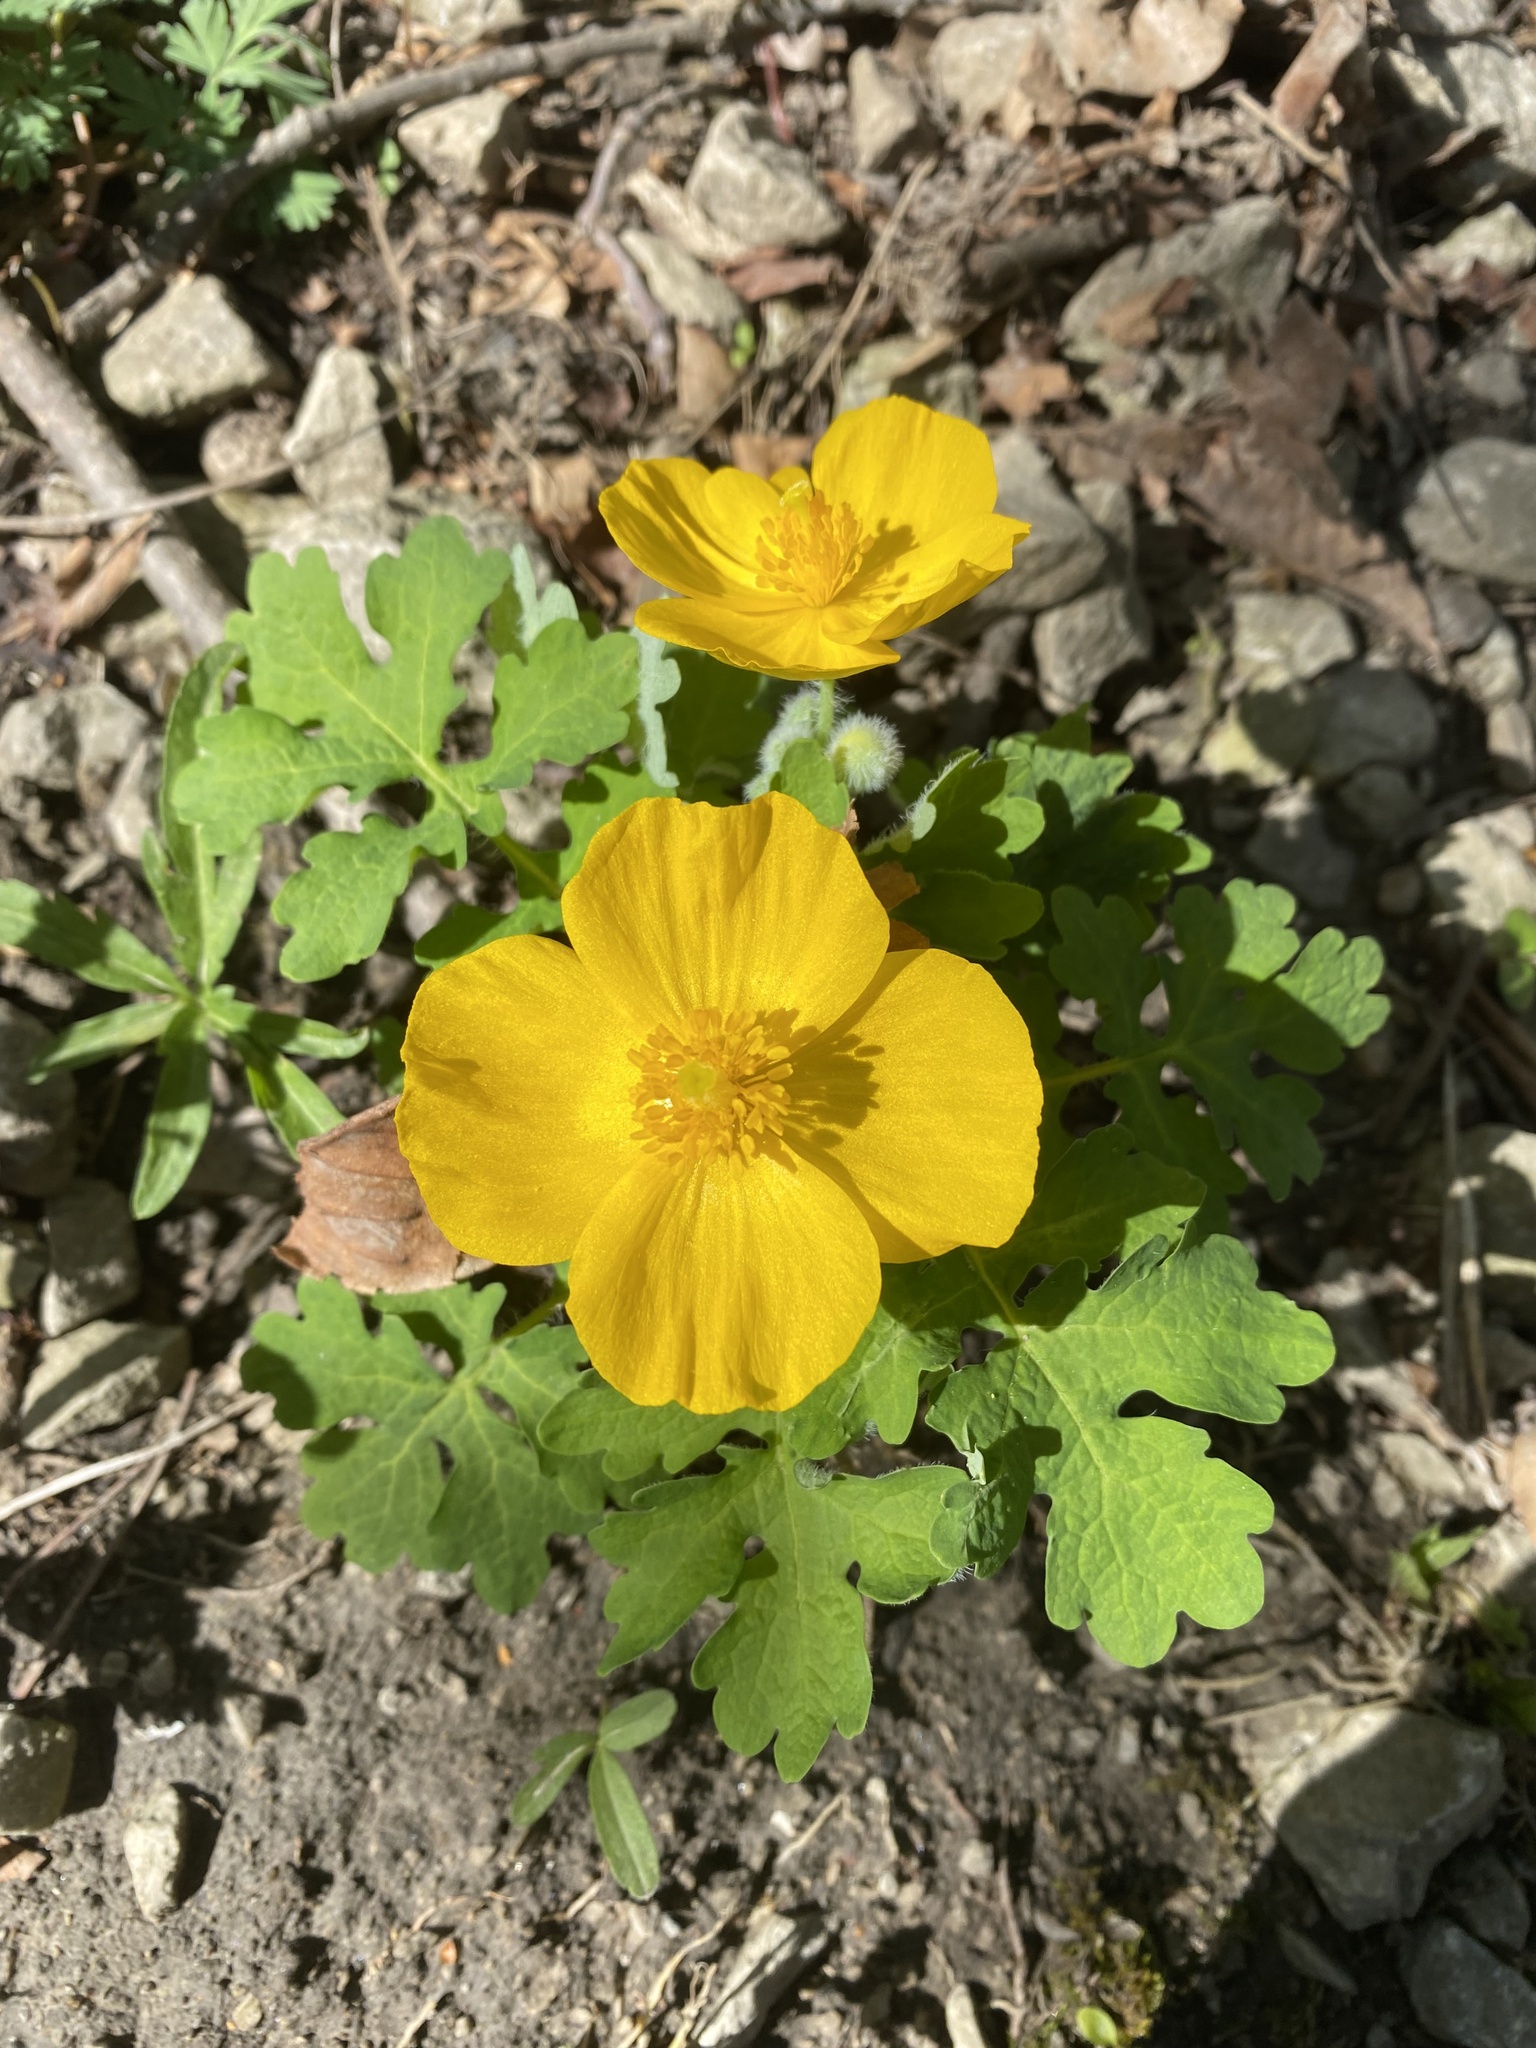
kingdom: Plantae
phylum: Tracheophyta
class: Magnoliopsida
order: Ranunculales
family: Papaveraceae
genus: Stylophorum
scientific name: Stylophorum diphyllum
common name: Celandine poppy
